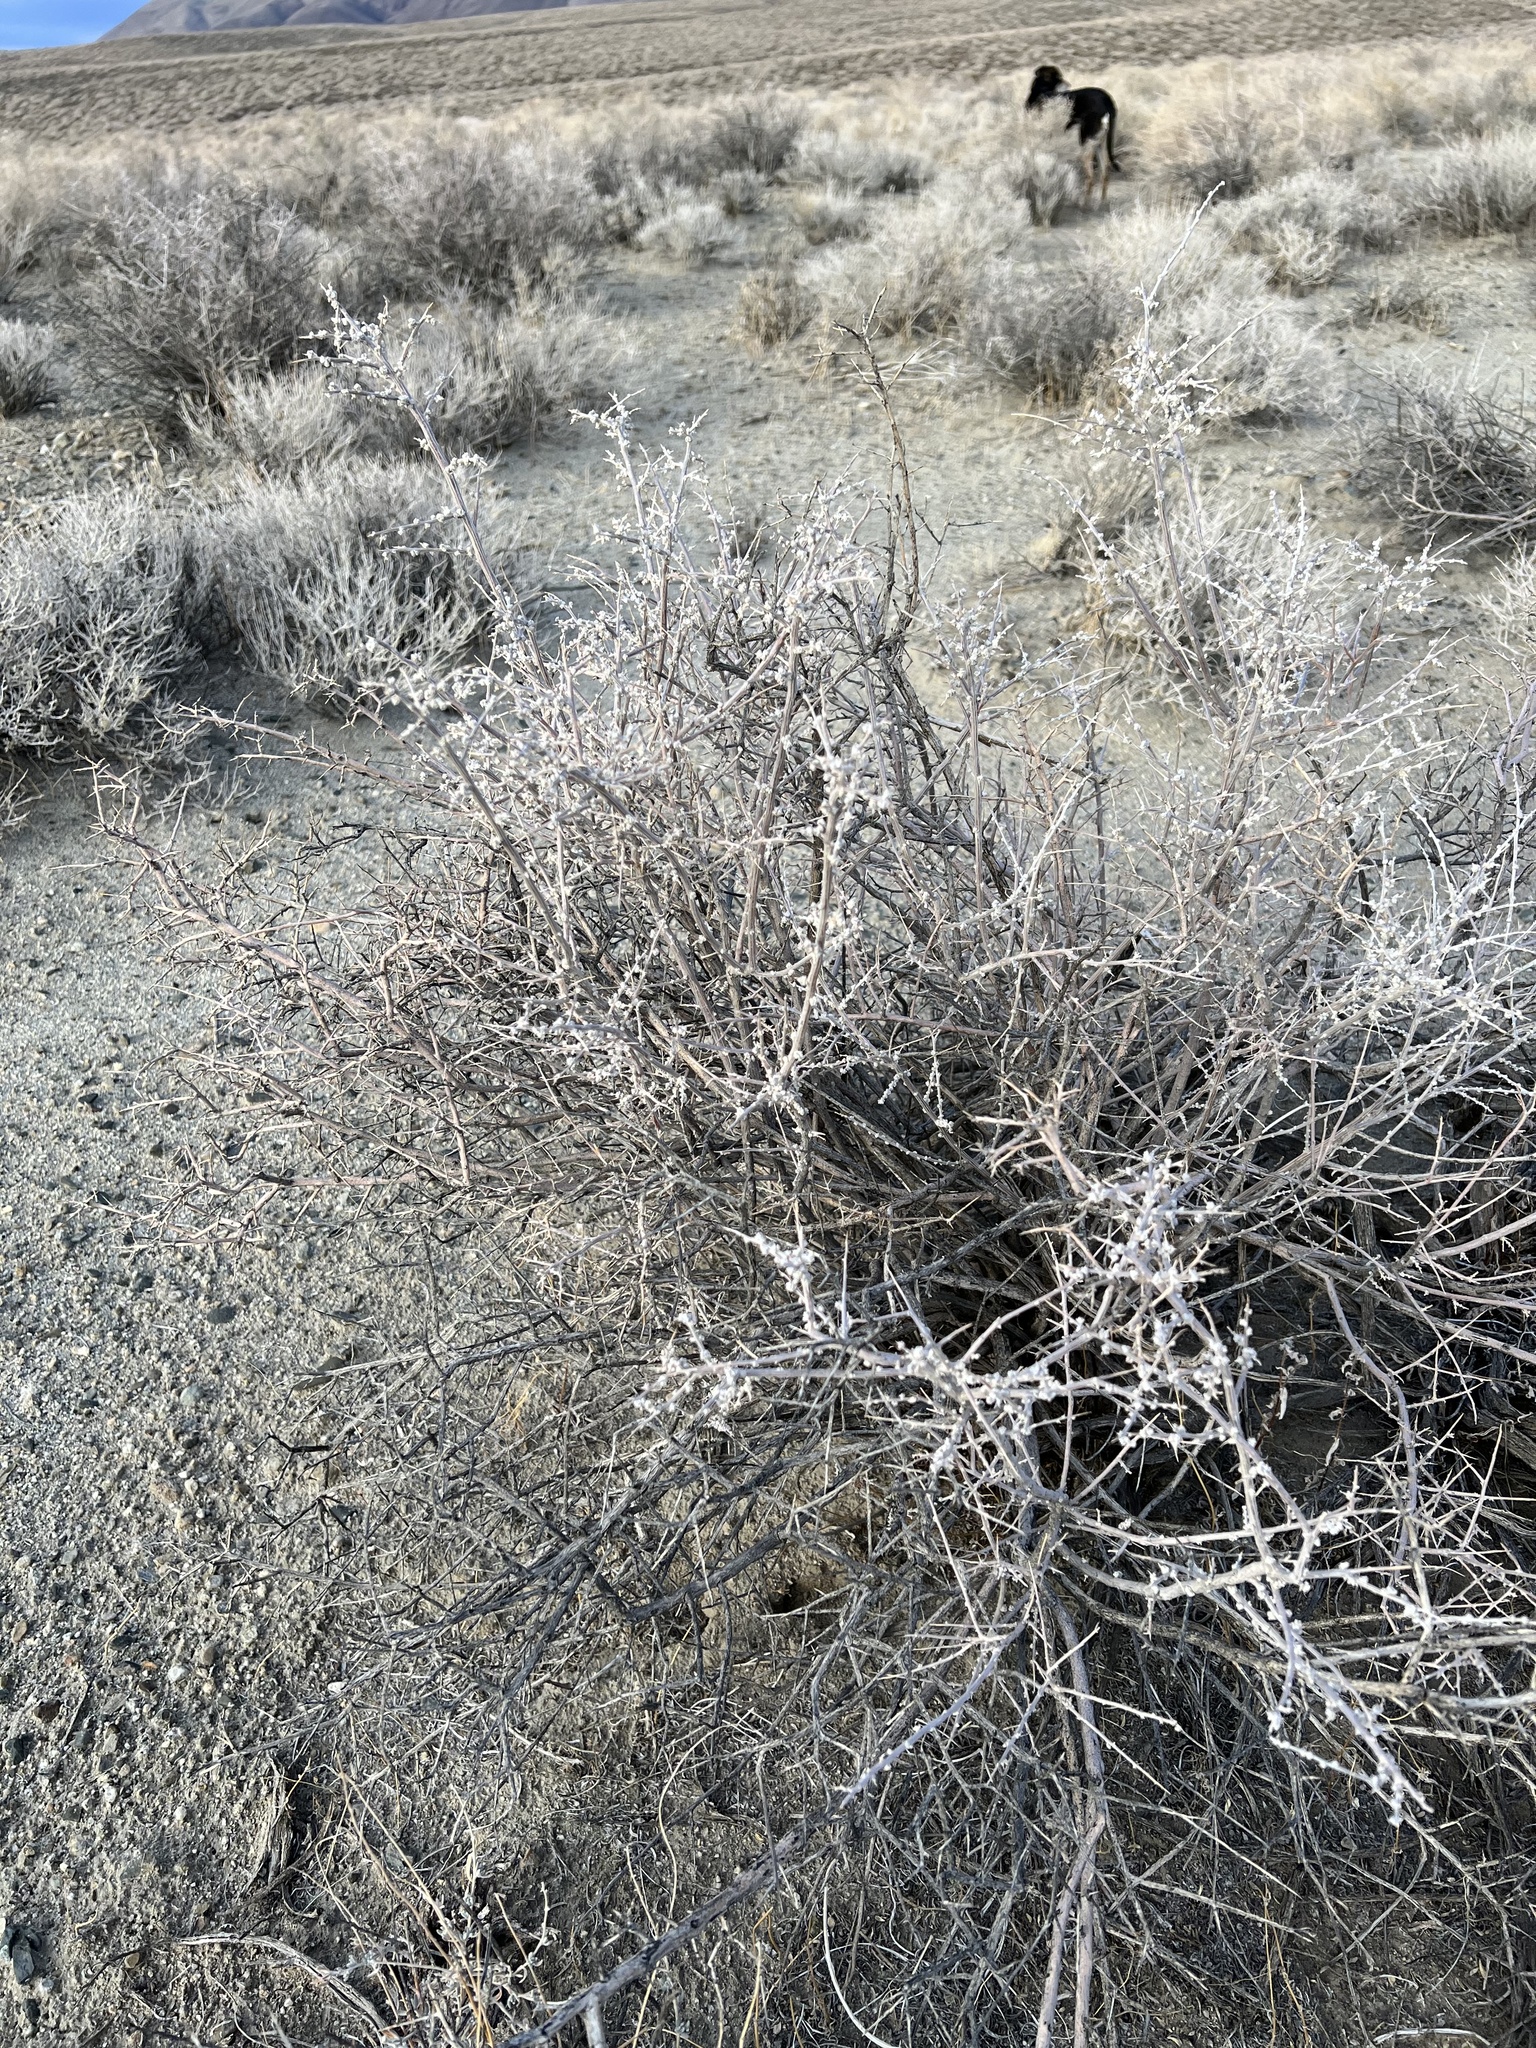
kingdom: Plantae
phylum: Tracheophyta
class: Magnoliopsida
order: Caryophyllales
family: Amaranthaceae
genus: Grayia
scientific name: Grayia spinosa
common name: Spiny hopsage
